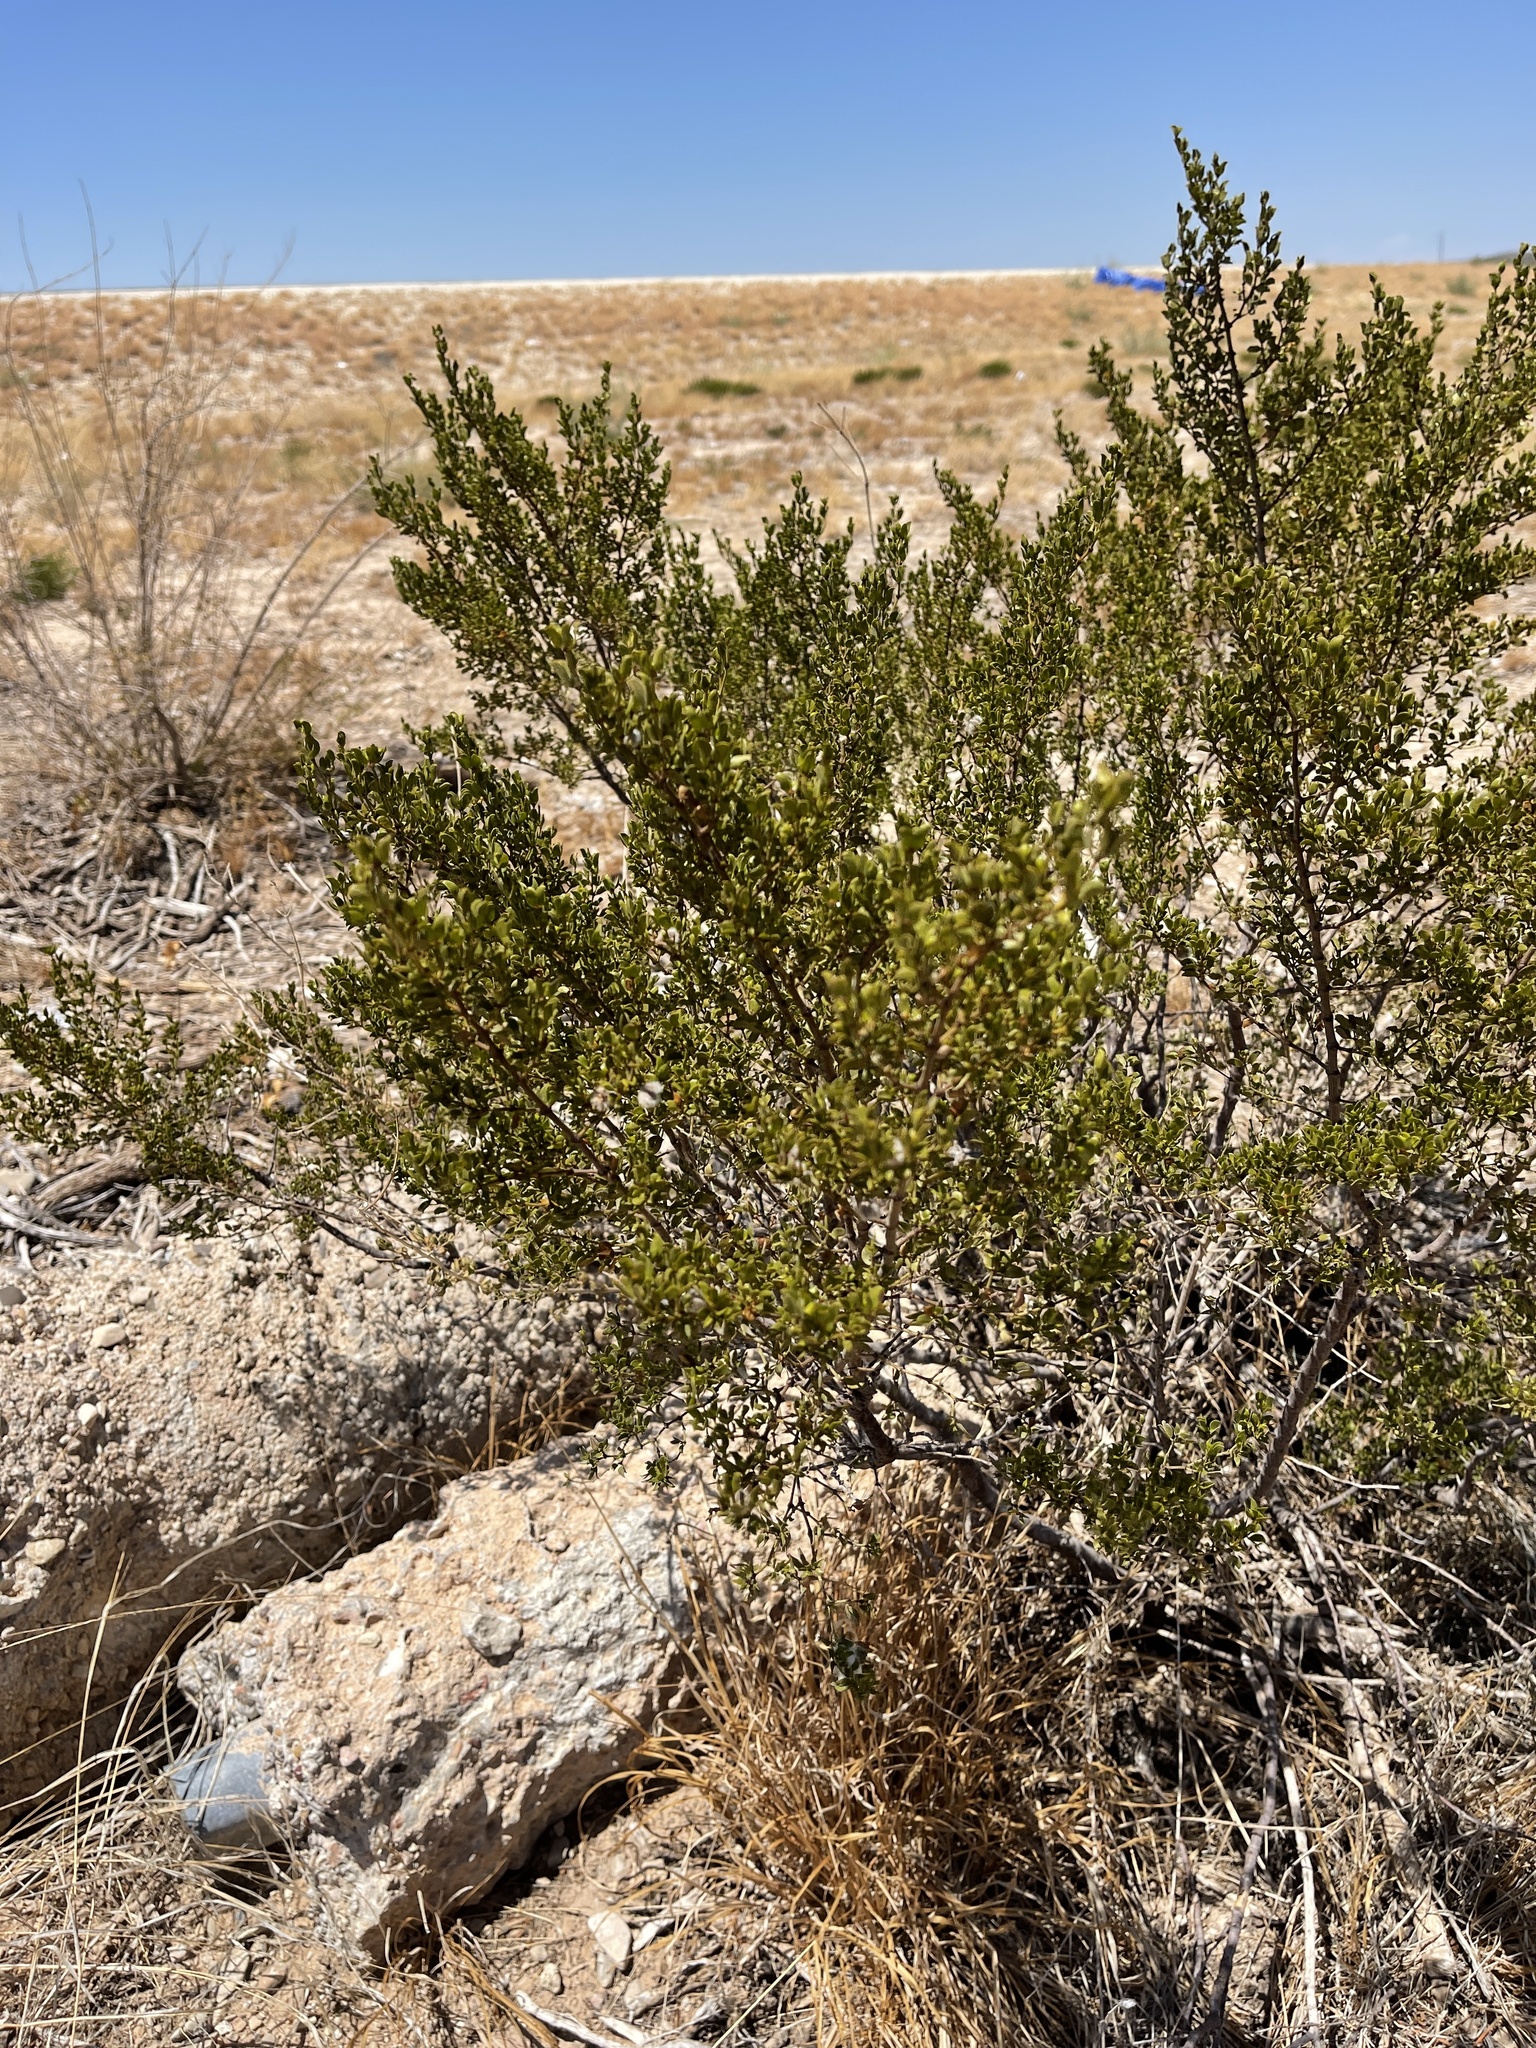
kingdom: Plantae
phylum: Tracheophyta
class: Magnoliopsida
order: Zygophyllales
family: Zygophyllaceae
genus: Larrea
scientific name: Larrea tridentata
